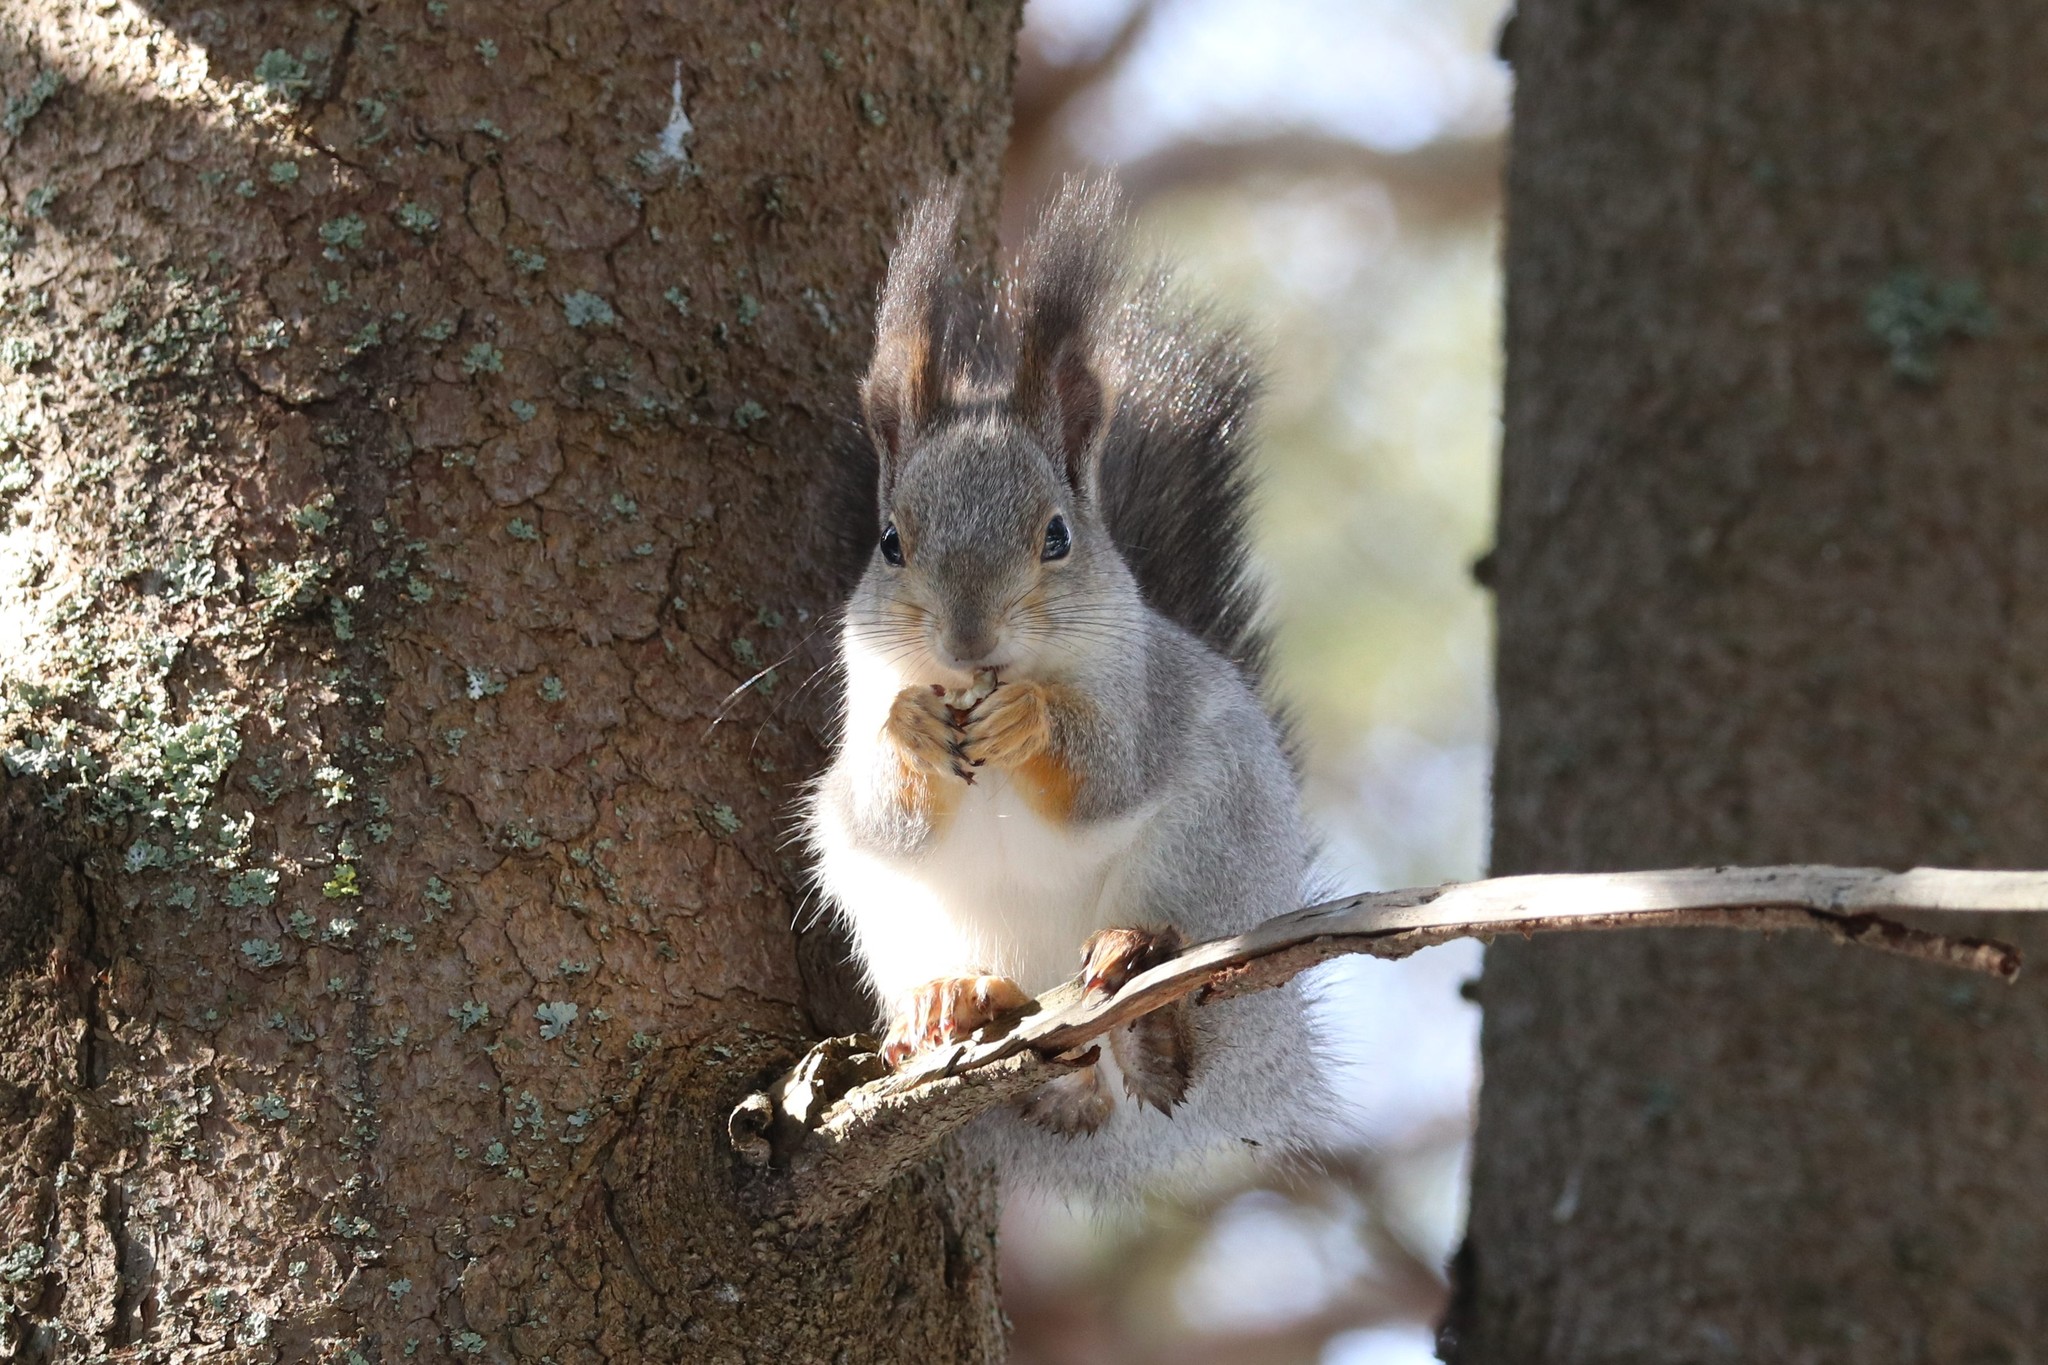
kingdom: Animalia
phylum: Chordata
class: Mammalia
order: Rodentia
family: Sciuridae
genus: Sciurus
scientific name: Sciurus vulgaris
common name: Eurasian red squirrel
